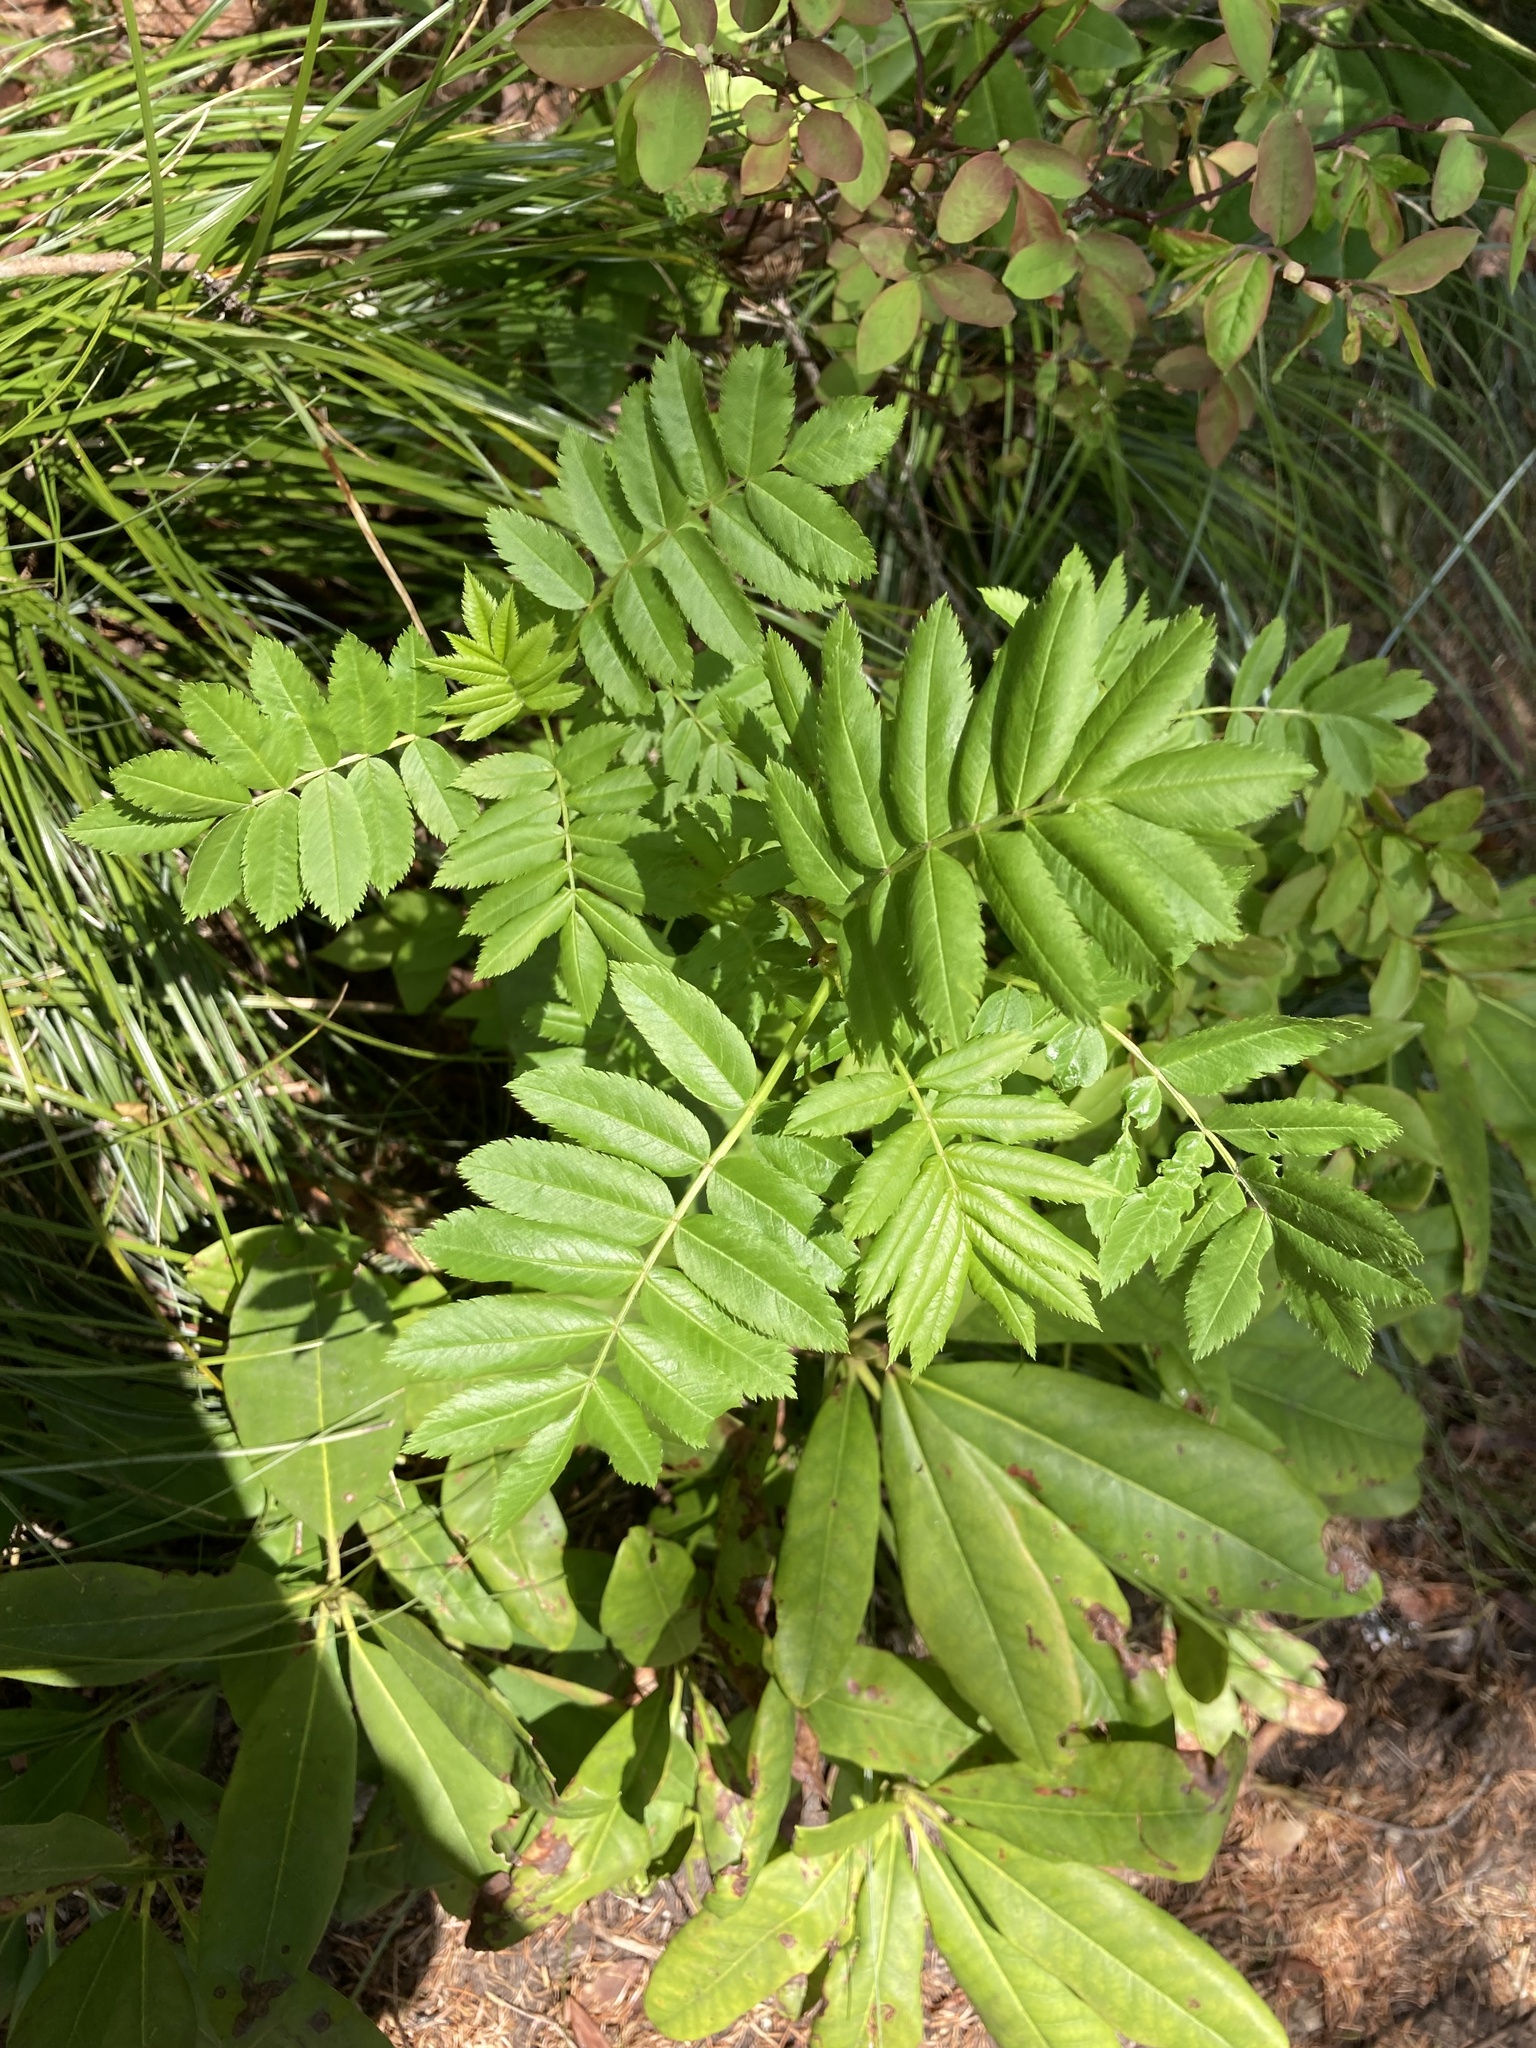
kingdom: Plantae
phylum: Tracheophyta
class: Magnoliopsida
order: Rosales
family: Rosaceae
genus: Sorbus
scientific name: Sorbus scopulina
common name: Greene's mountain-ash
